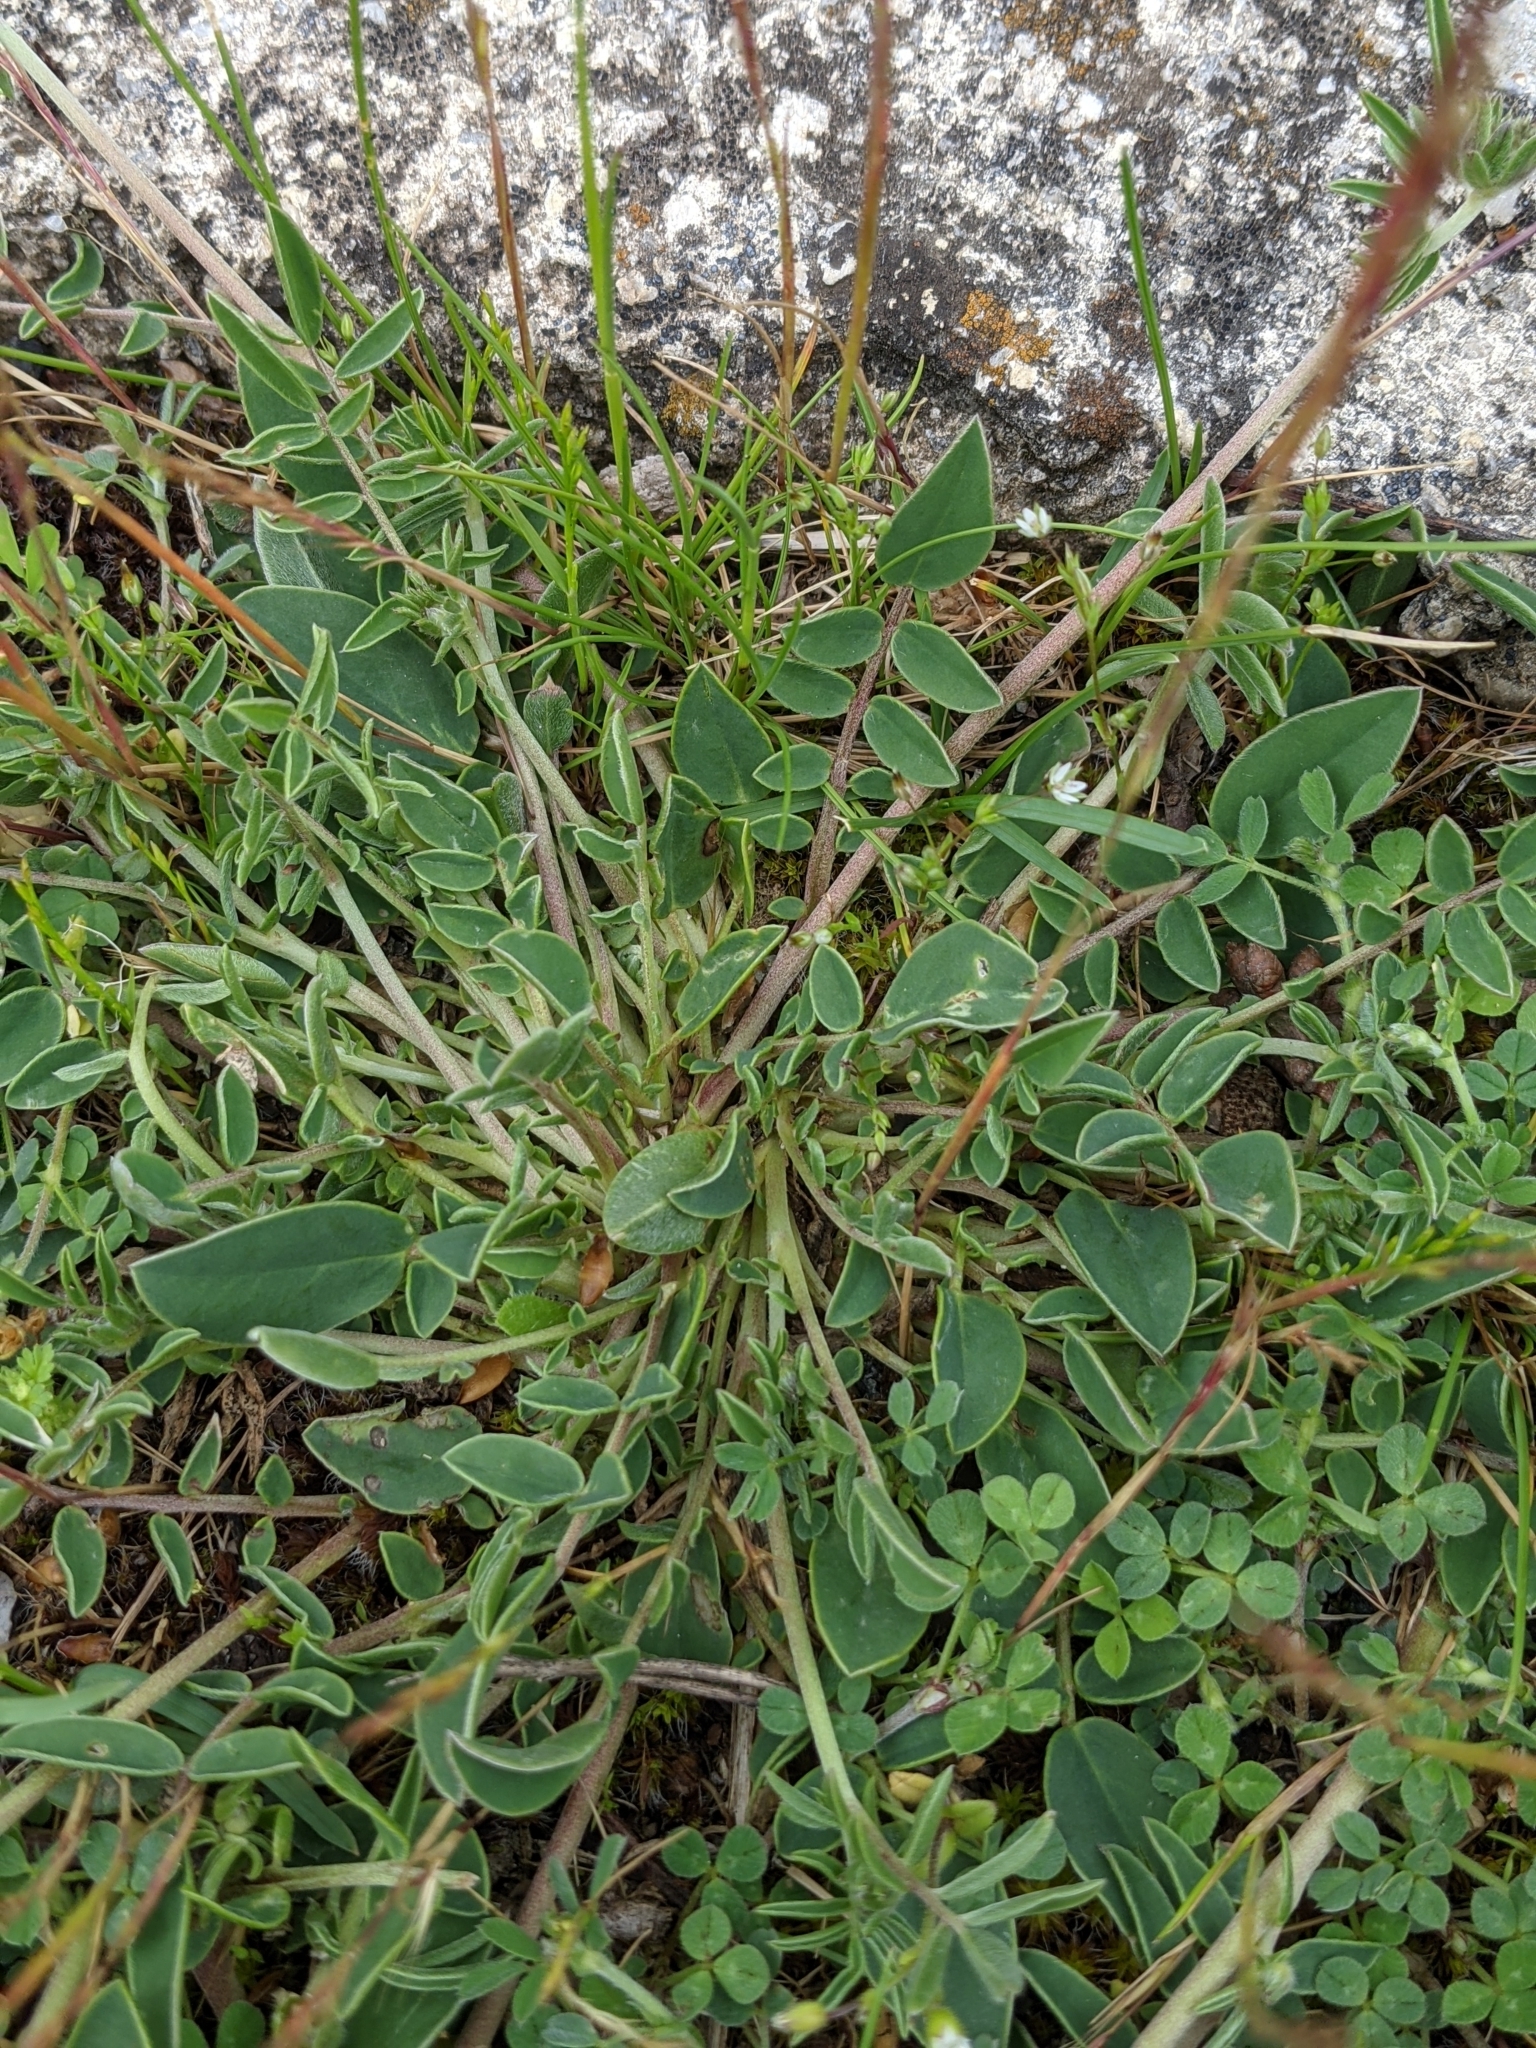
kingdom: Plantae
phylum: Tracheophyta
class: Magnoliopsida
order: Fabales
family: Fabaceae
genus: Anthyllis
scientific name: Anthyllis vulneraria
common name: Kidney vetch
